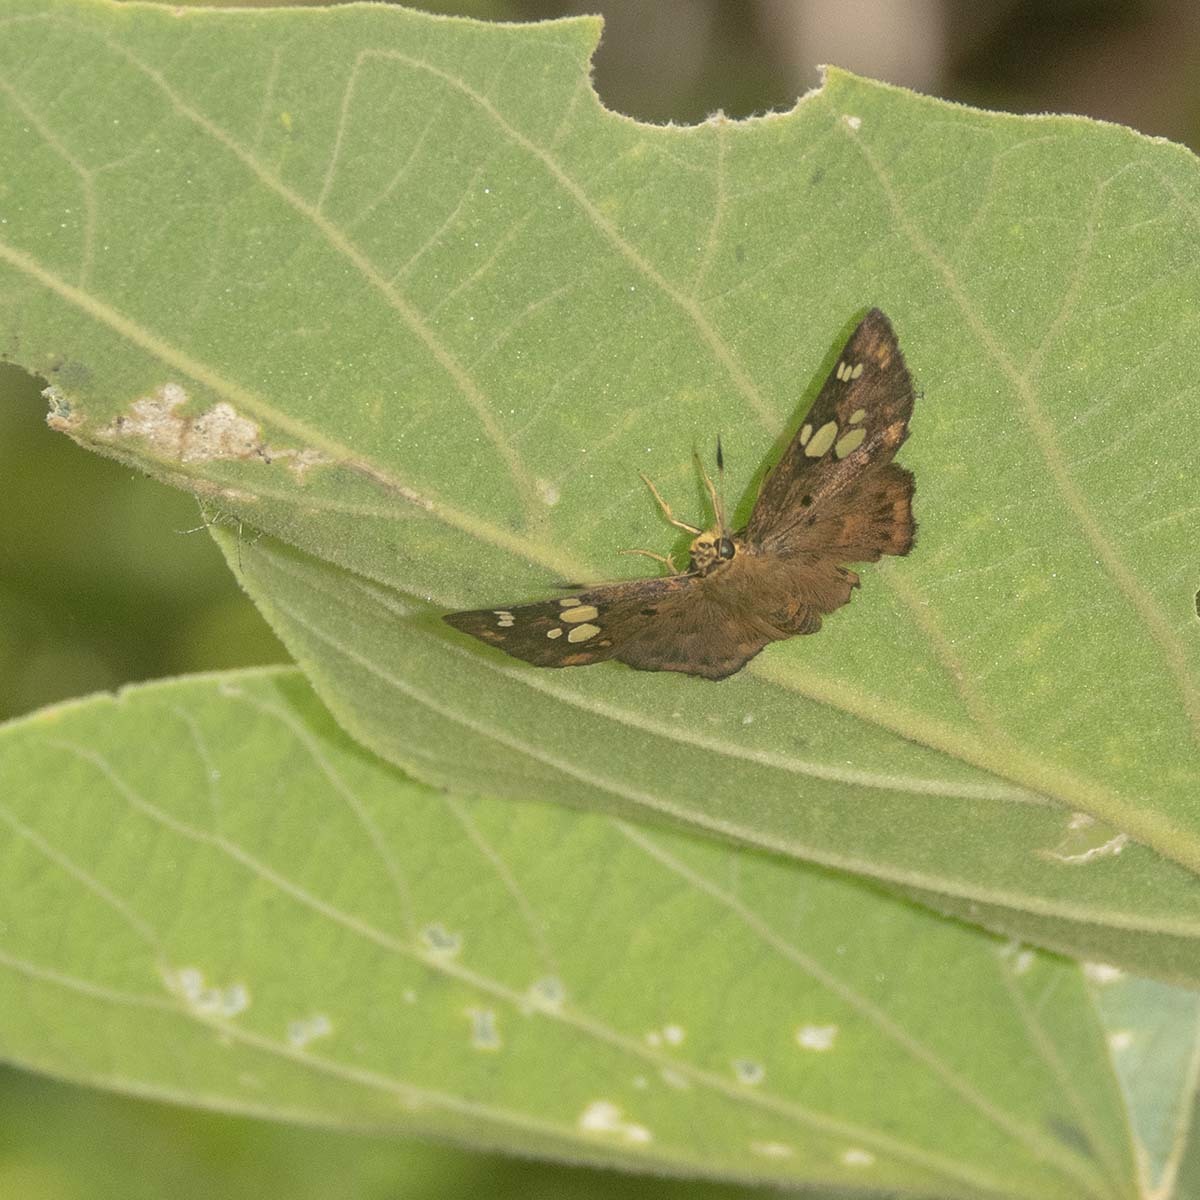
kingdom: Animalia
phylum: Arthropoda
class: Insecta
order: Lepidoptera
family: Hesperiidae
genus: Coladenia
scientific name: Coladenia
